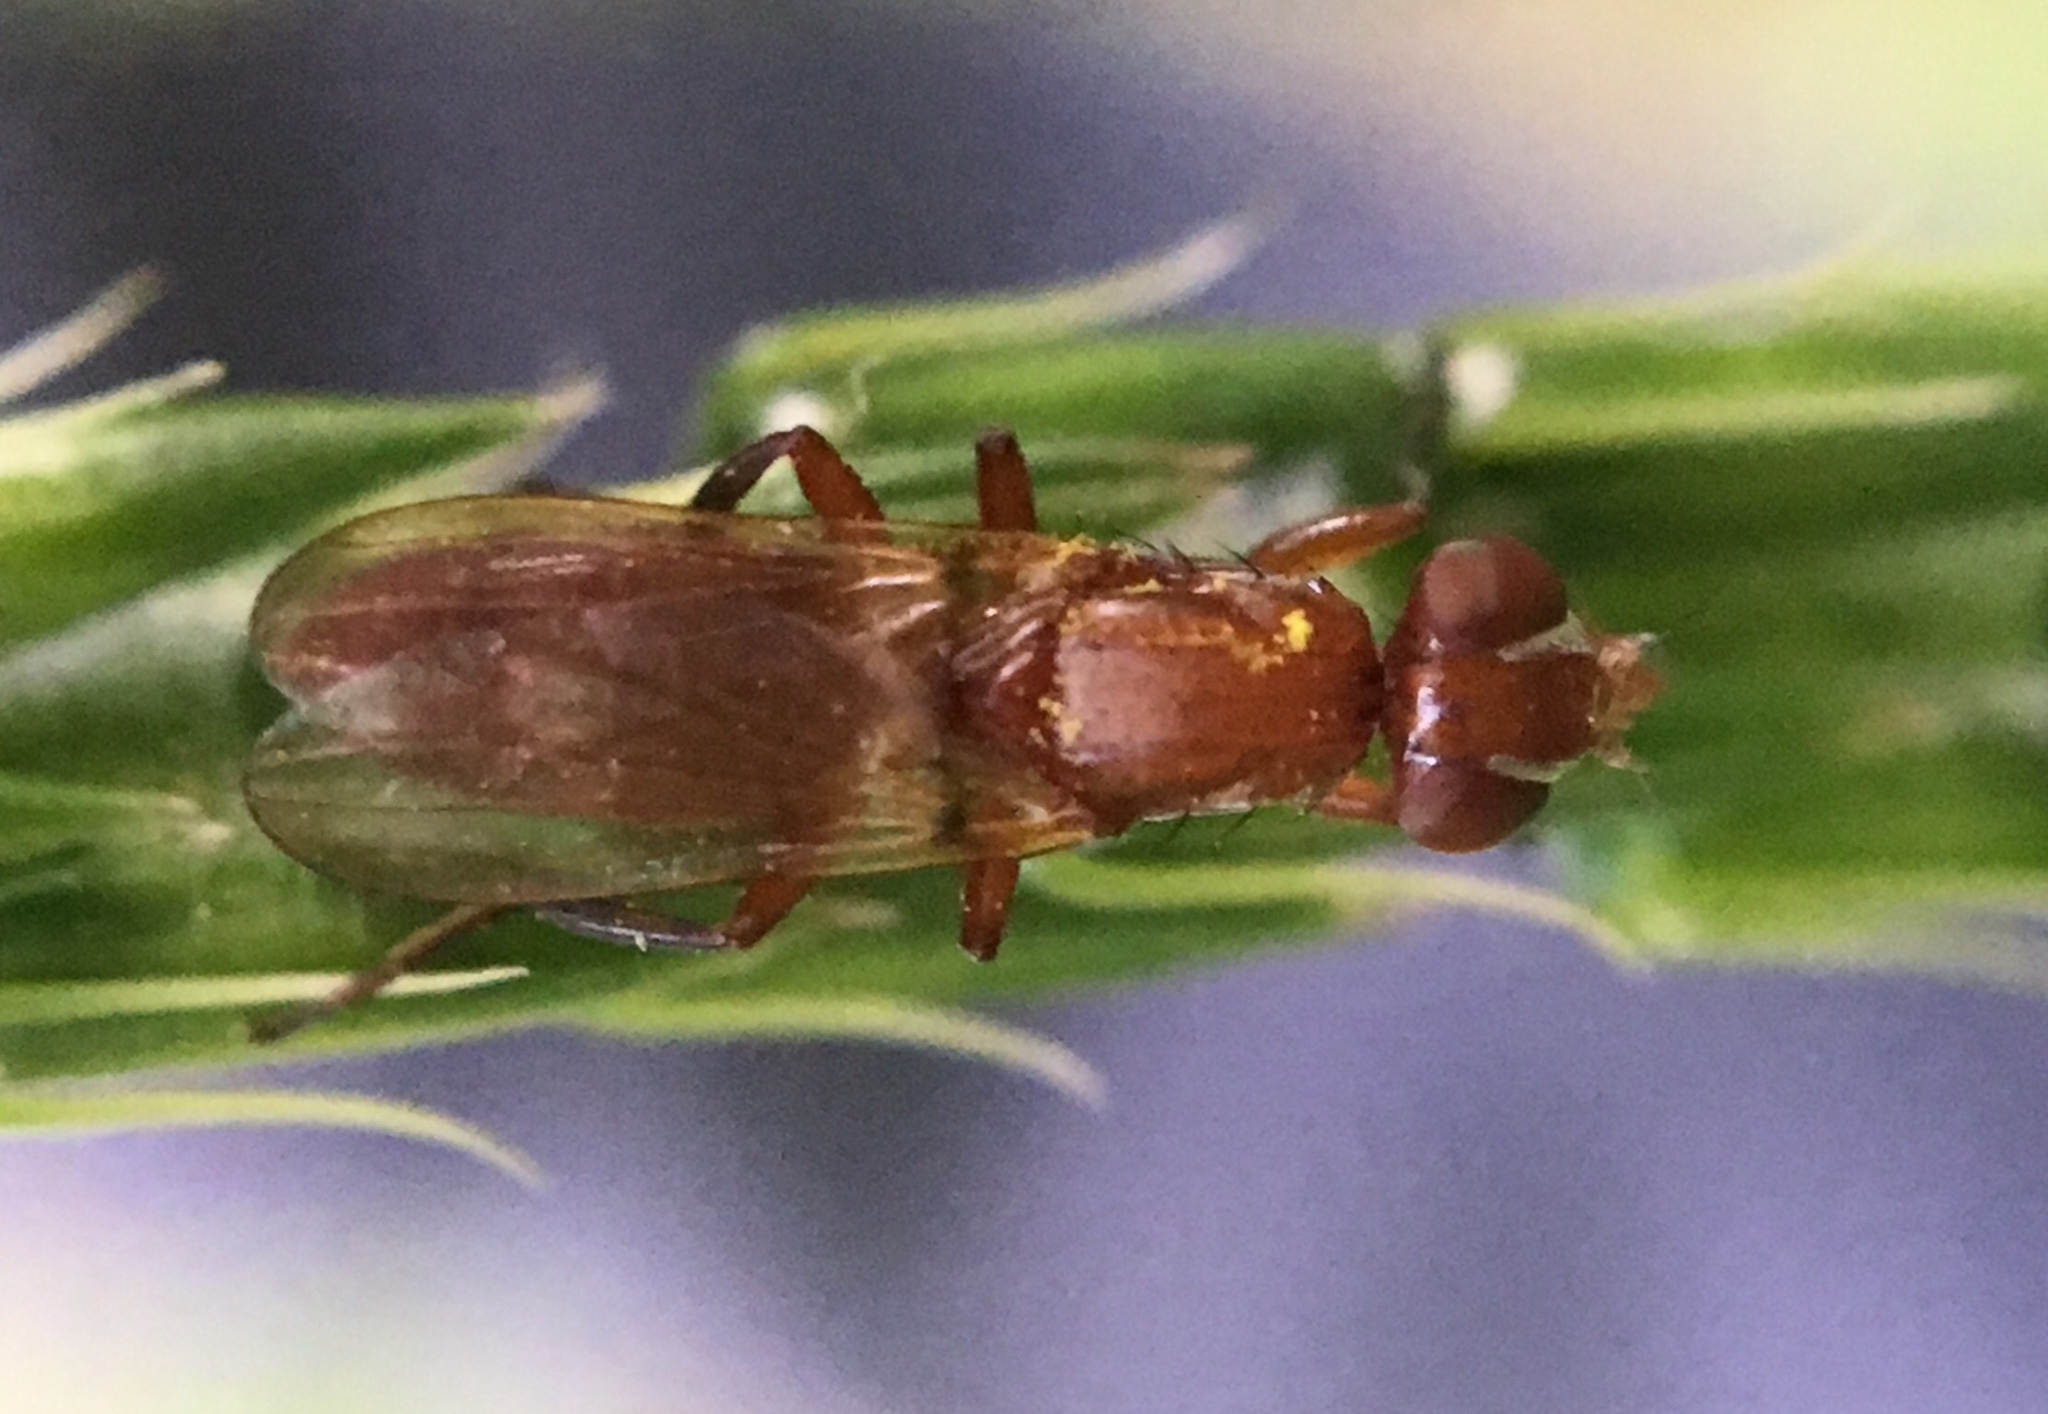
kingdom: Animalia
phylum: Arthropoda
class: Insecta
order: Diptera
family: Ulidiidae
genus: Zacompsia
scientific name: Zacompsia fulva
